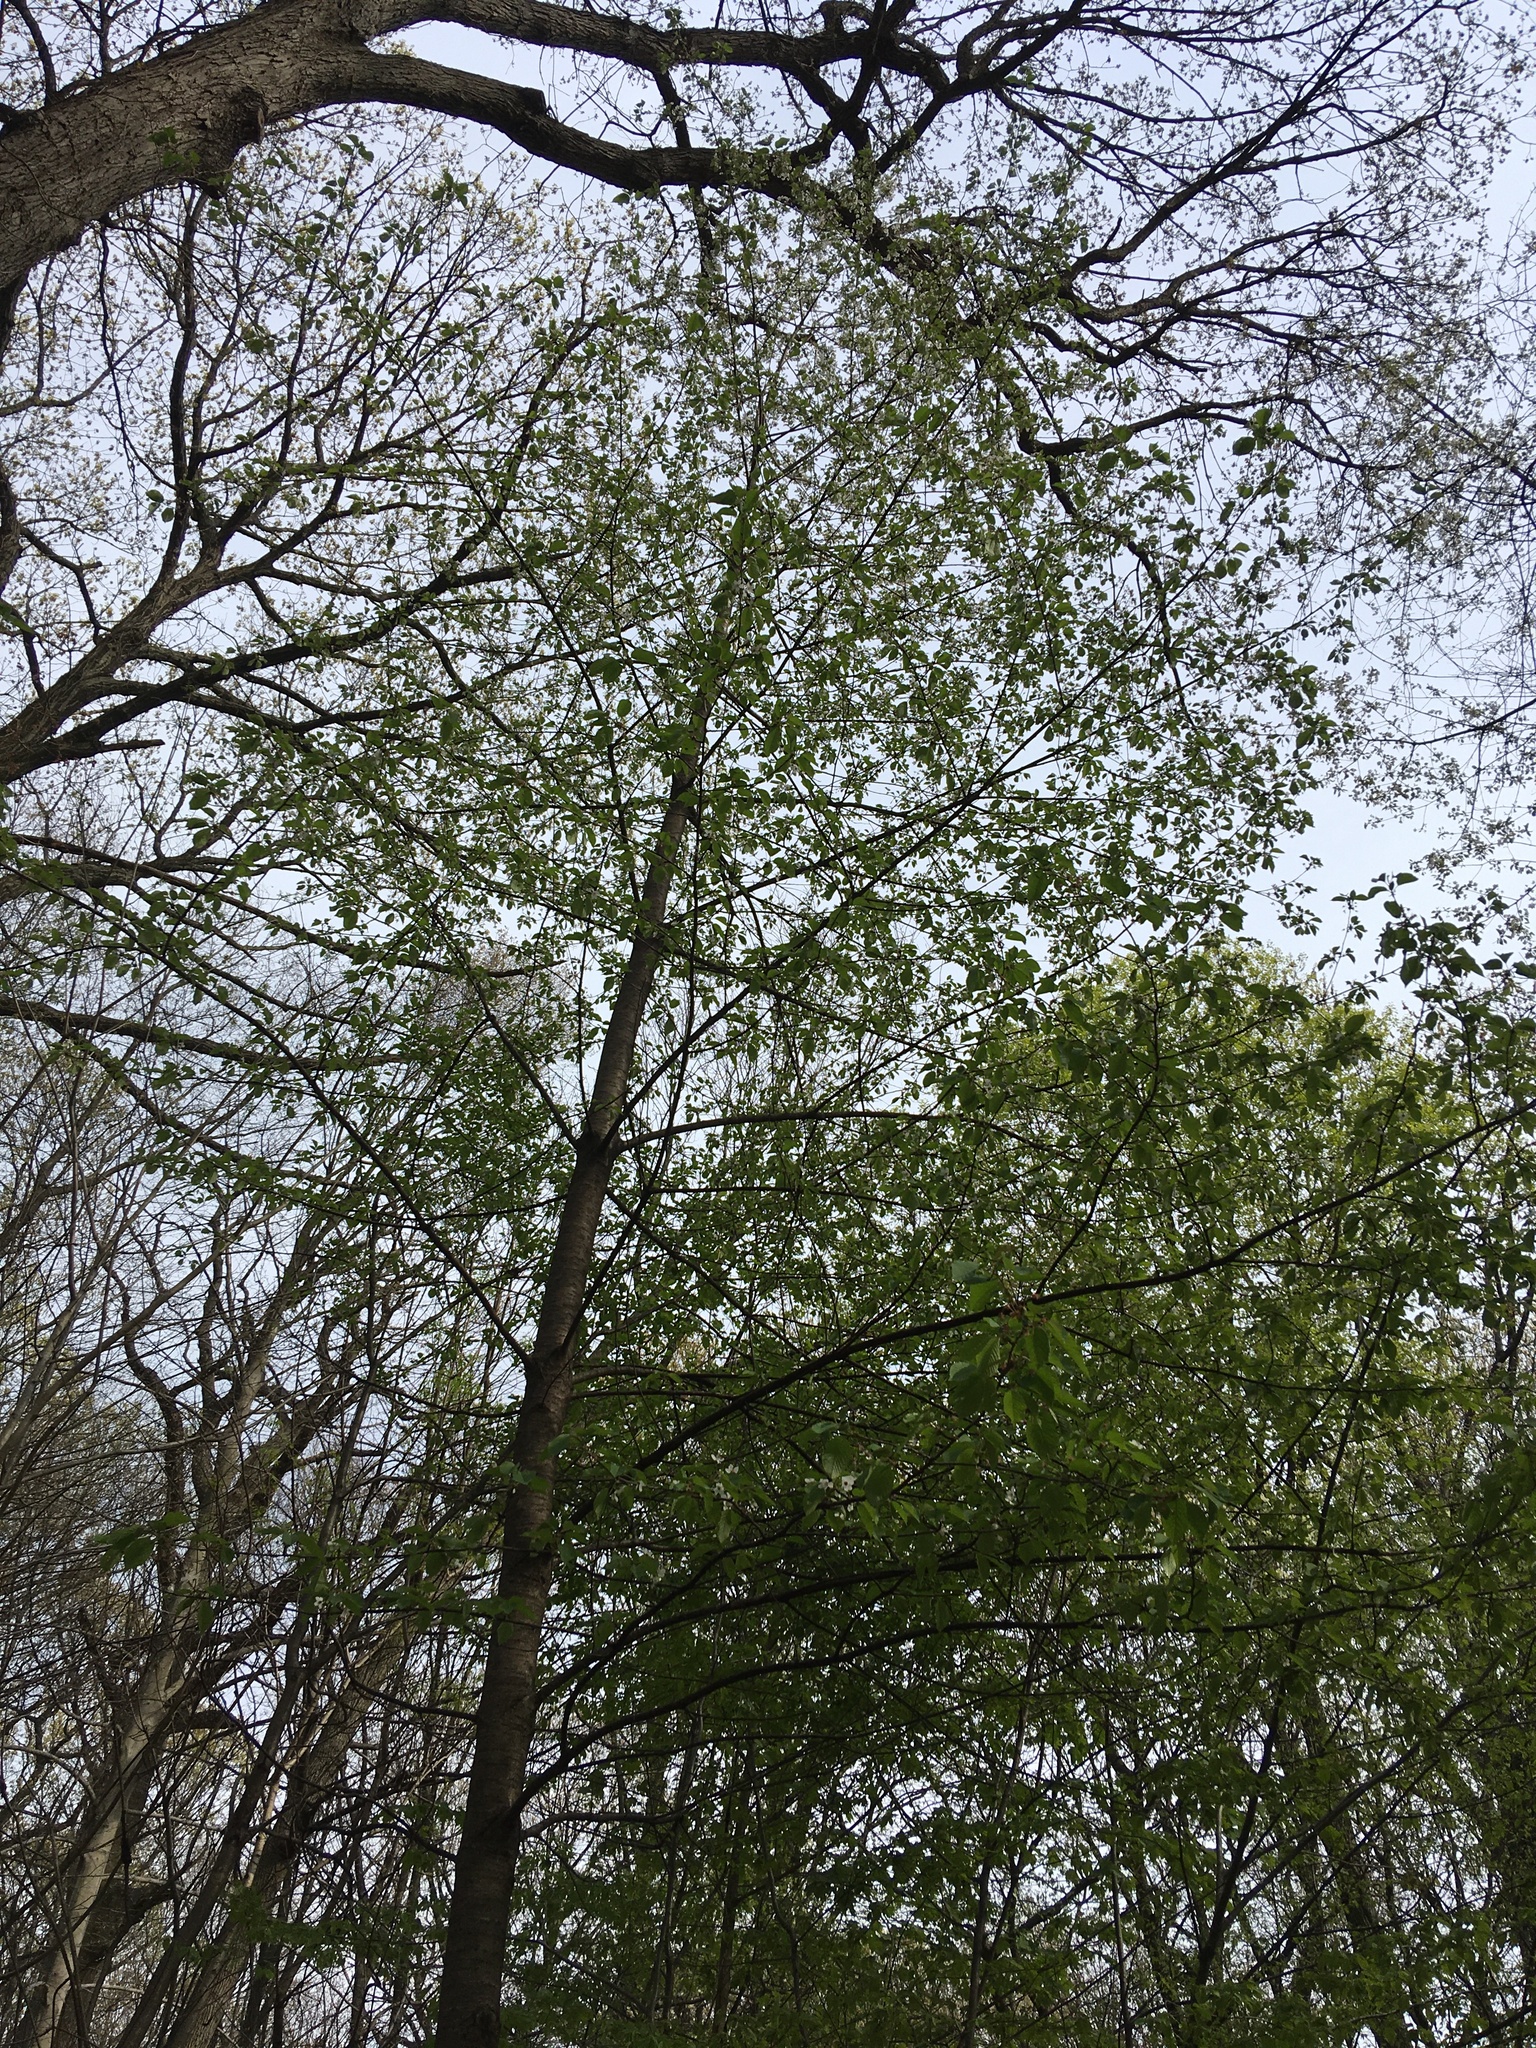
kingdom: Plantae
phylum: Tracheophyta
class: Magnoliopsida
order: Rosales
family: Rosaceae
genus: Prunus
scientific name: Prunus avium
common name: Sweet cherry
